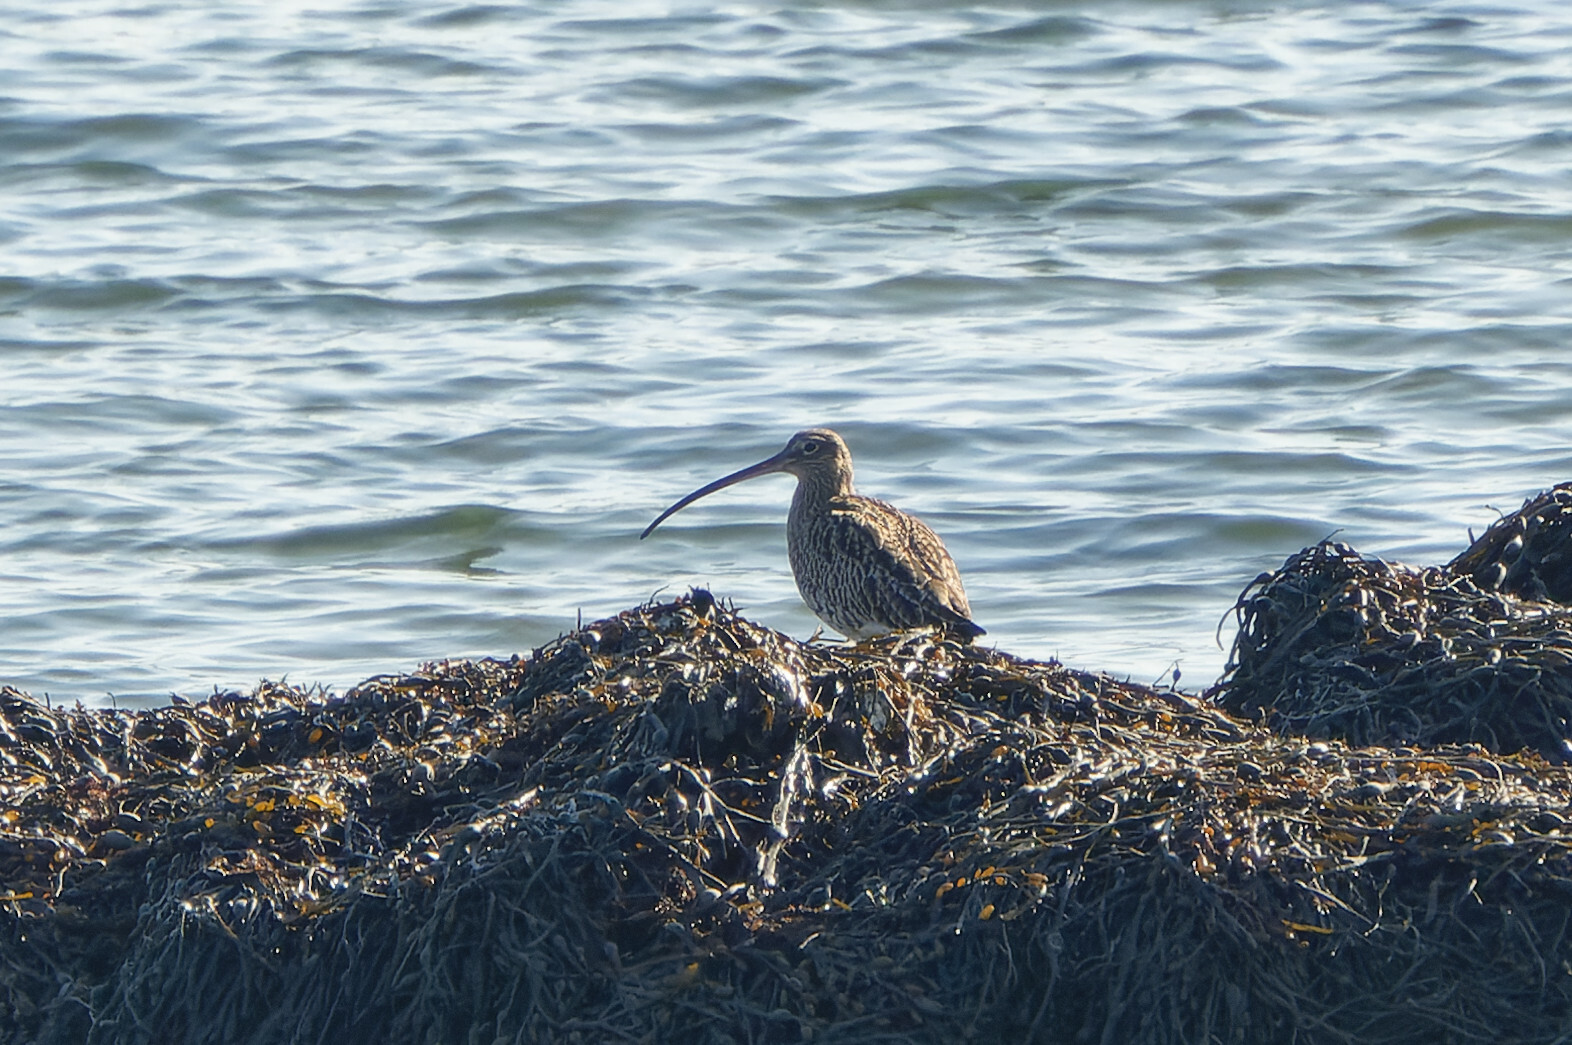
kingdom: Animalia
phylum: Chordata
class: Aves
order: Charadriiformes
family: Scolopacidae
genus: Numenius
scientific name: Numenius arquata
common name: Eurasian curlew
